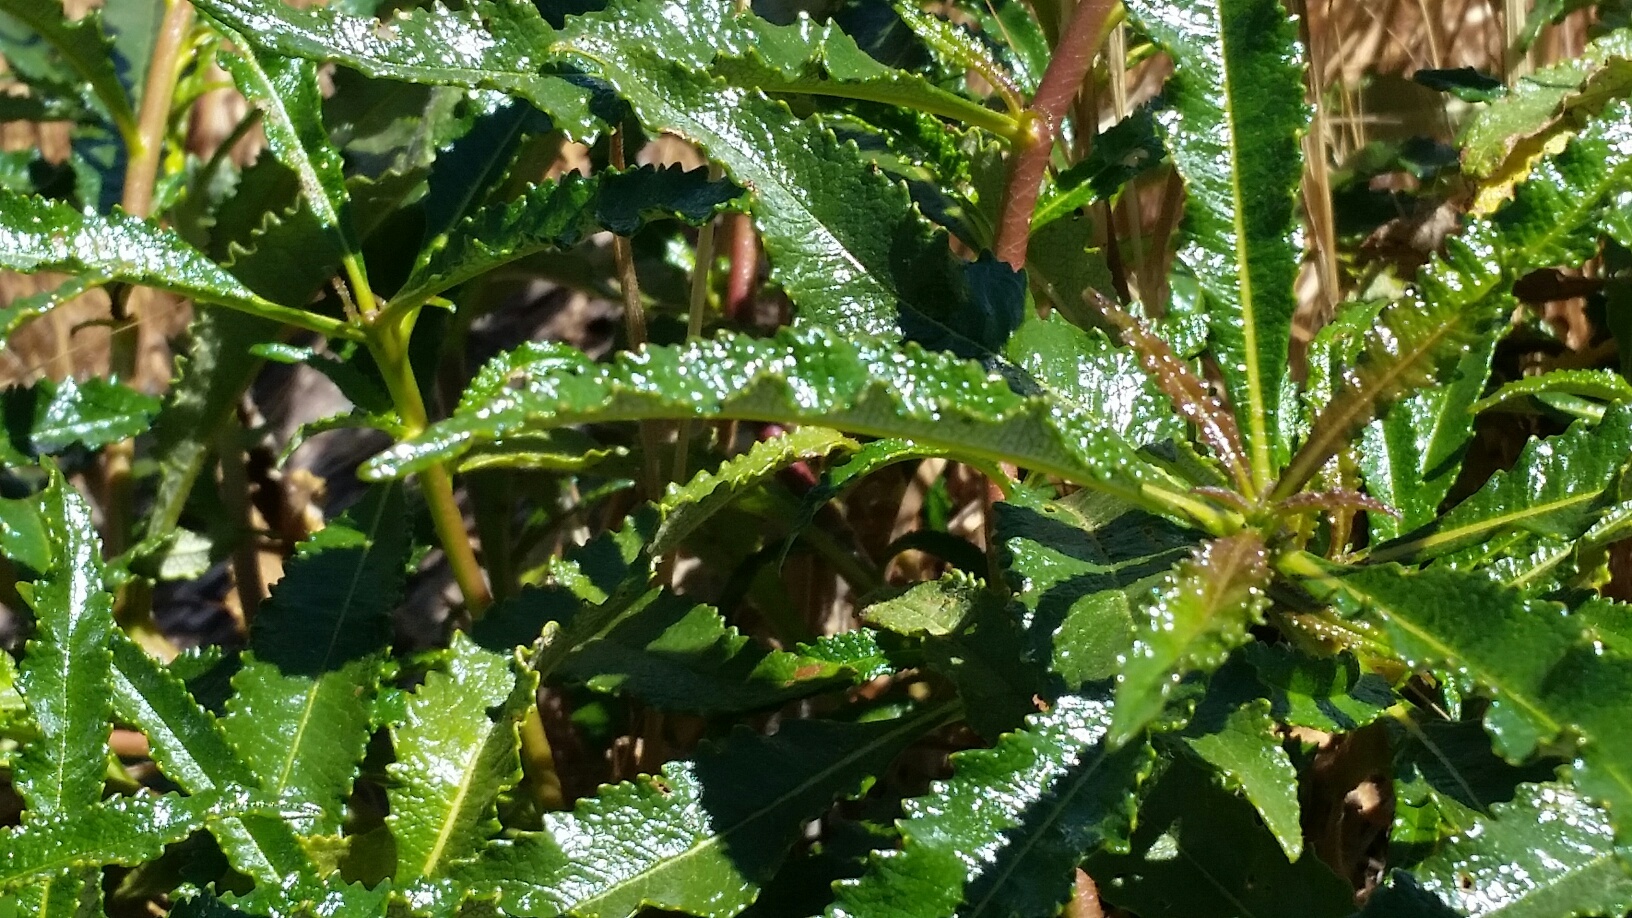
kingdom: Plantae
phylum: Tracheophyta
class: Magnoliopsida
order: Boraginales
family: Namaceae
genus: Eriodictyon
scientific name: Eriodictyon californicum
